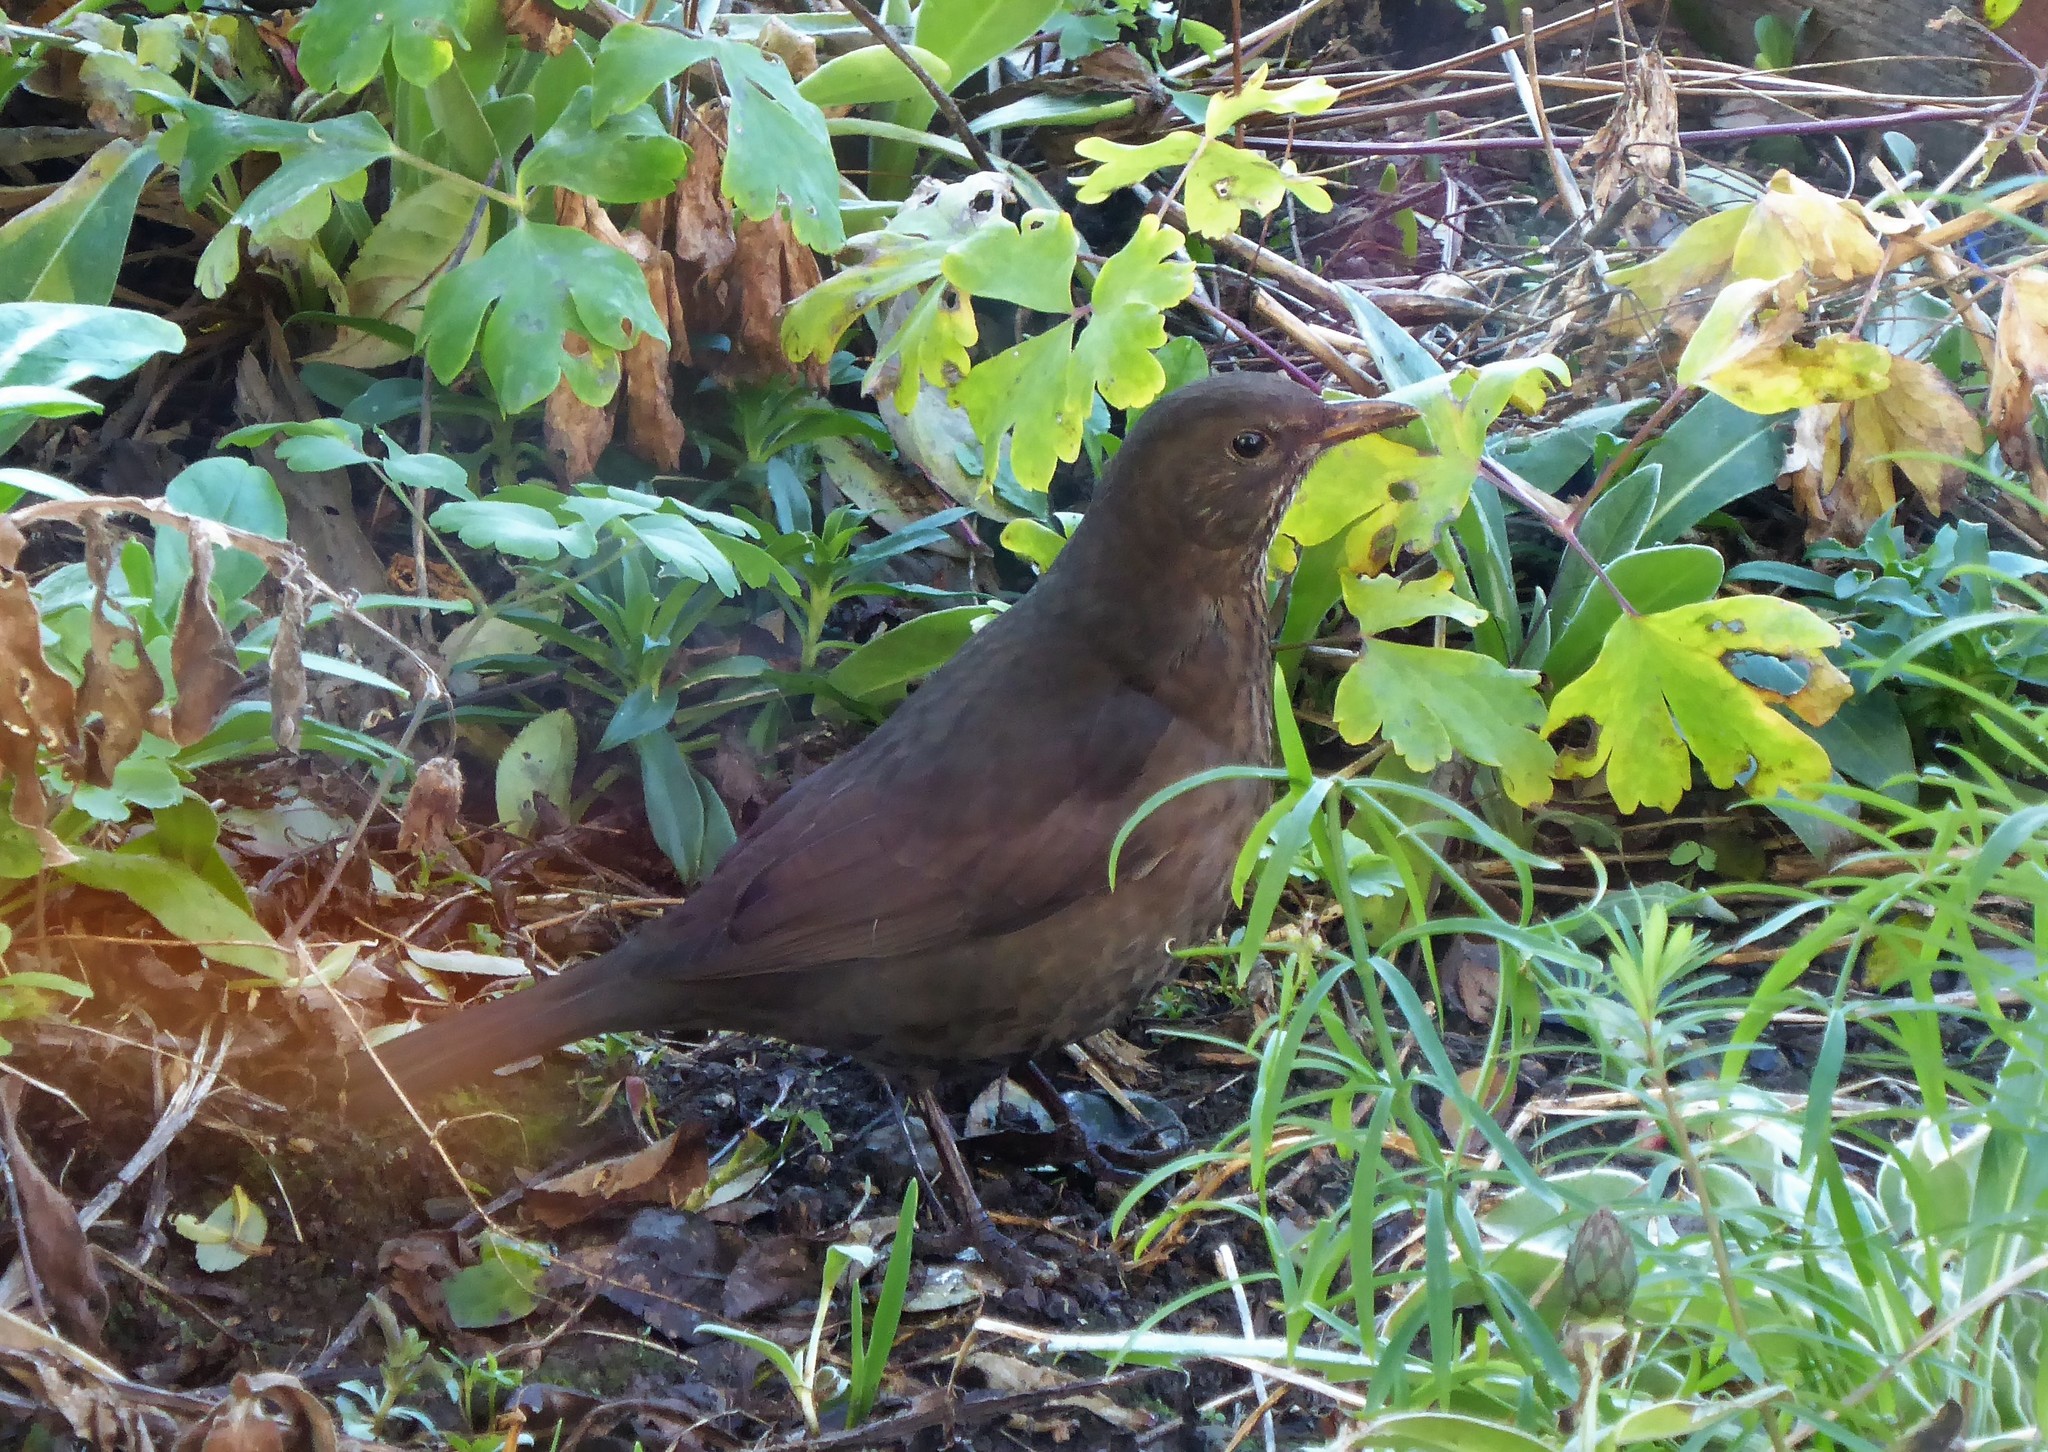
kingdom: Animalia
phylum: Chordata
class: Aves
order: Passeriformes
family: Turdidae
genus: Turdus
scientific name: Turdus merula
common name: Common blackbird
